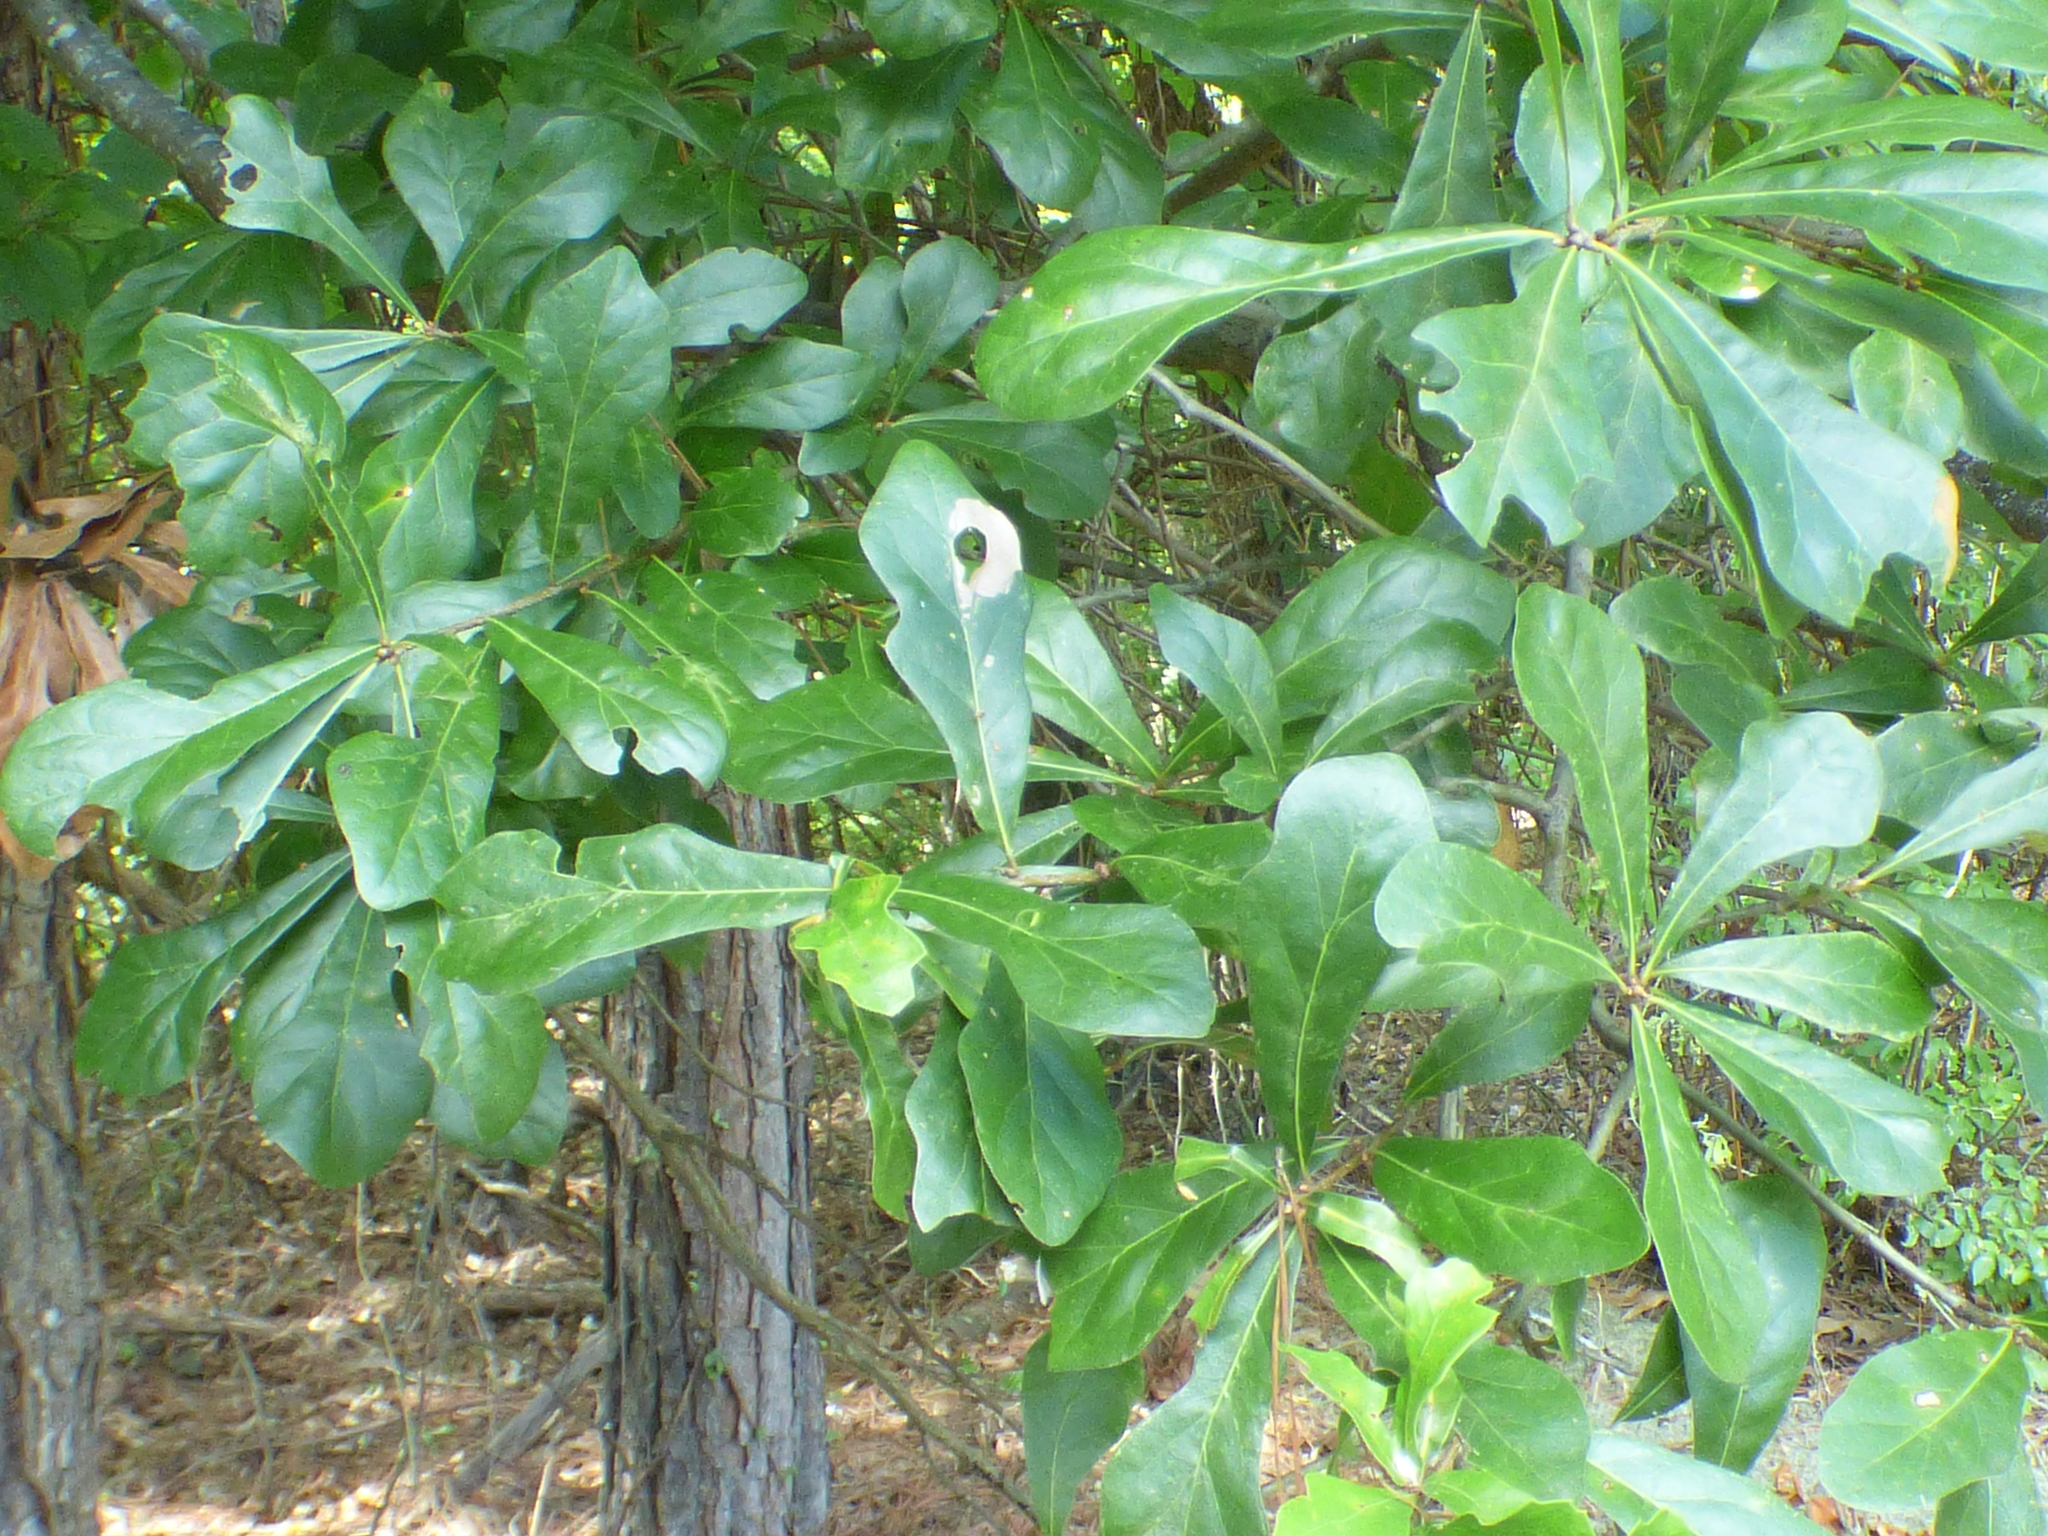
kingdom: Plantae
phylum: Tracheophyta
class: Magnoliopsida
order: Fagales
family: Fagaceae
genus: Quercus
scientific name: Quercus nigra
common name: Water oak
